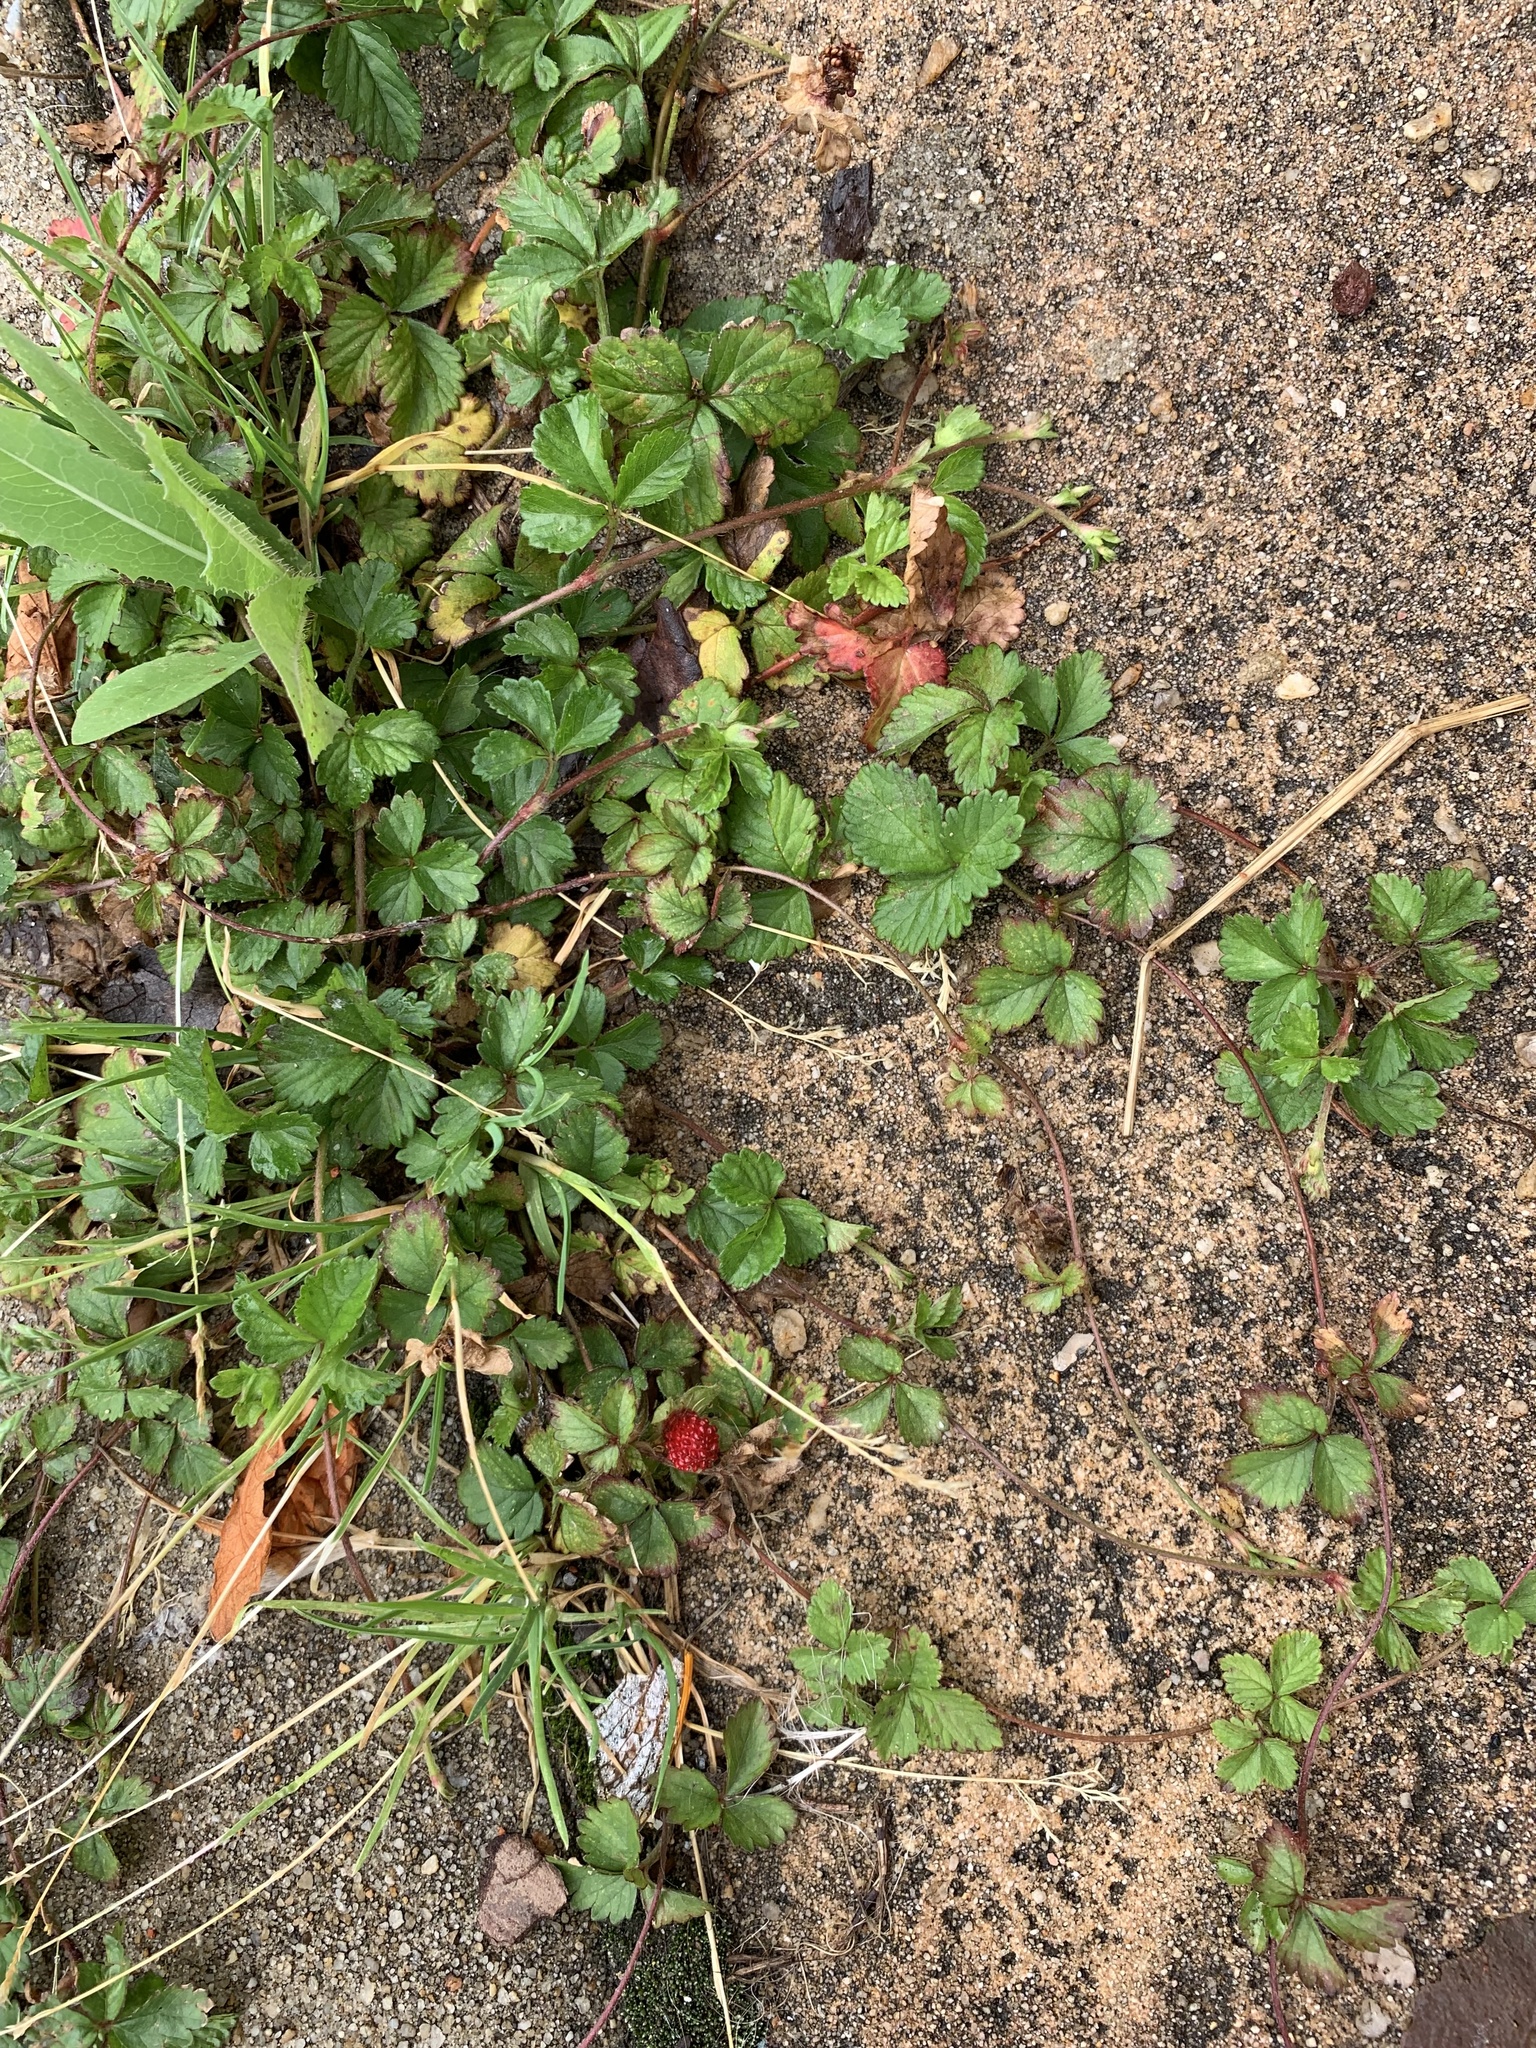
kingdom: Plantae
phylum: Tracheophyta
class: Magnoliopsida
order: Rosales
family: Rosaceae
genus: Potentilla
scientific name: Potentilla indica
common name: Yellow-flowered strawberry
